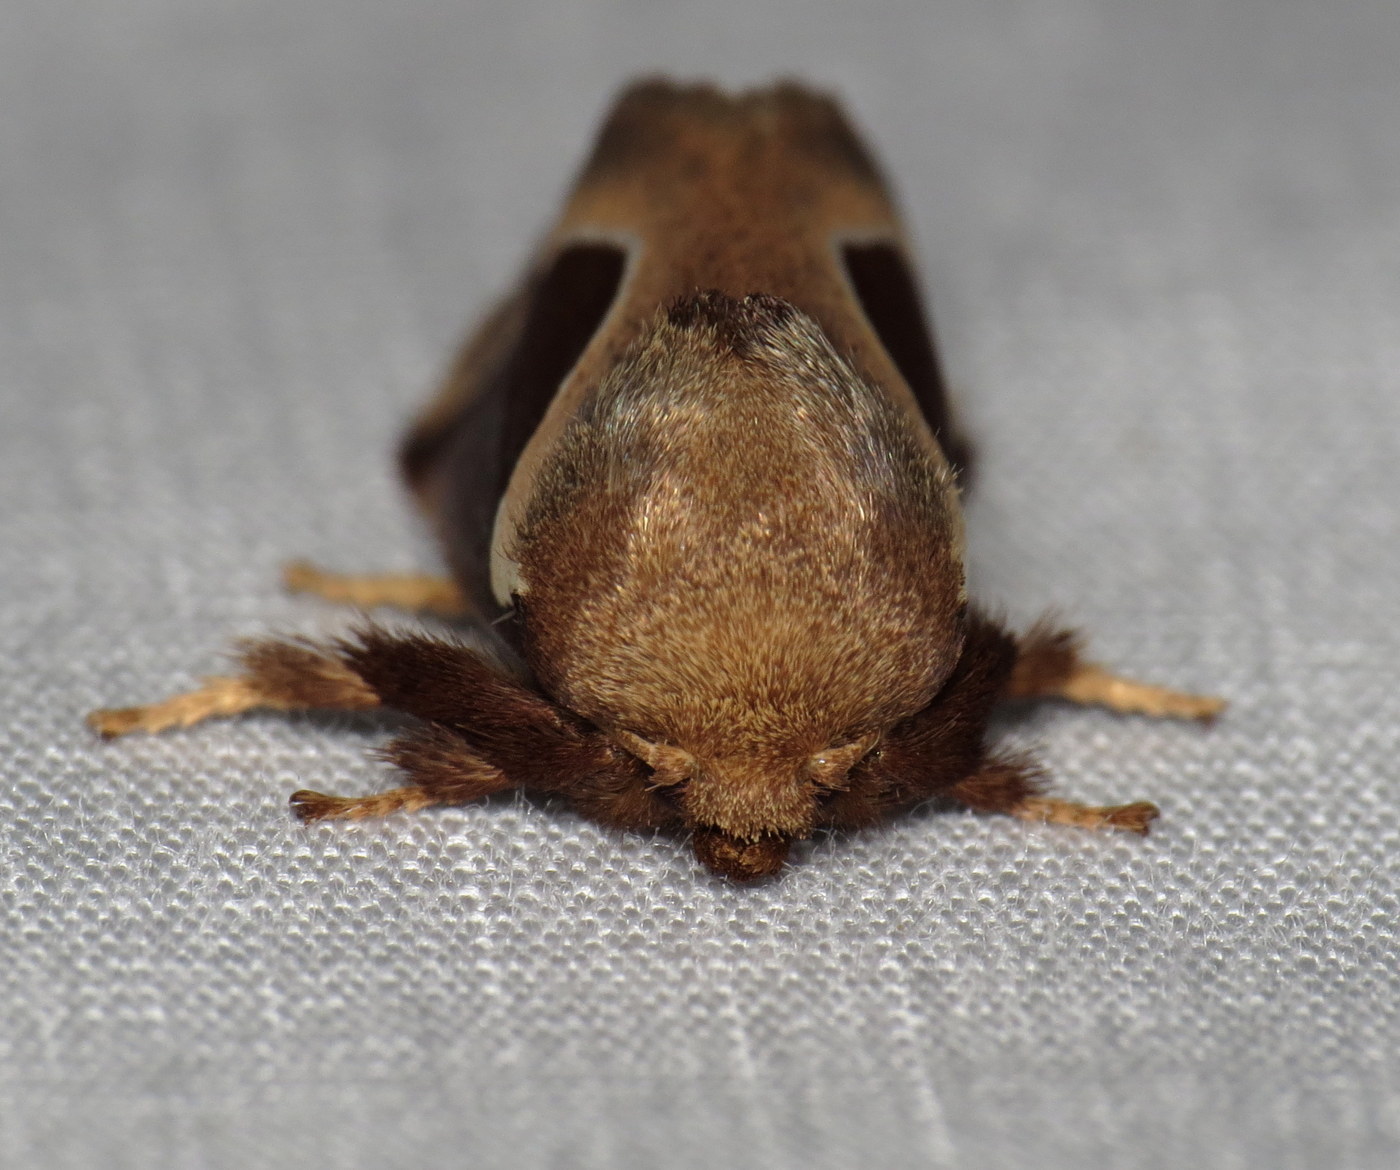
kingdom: Animalia
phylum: Arthropoda
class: Insecta
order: Lepidoptera
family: Limacodidae
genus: Prolimacodes
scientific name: Prolimacodes badia
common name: Skiff moth
